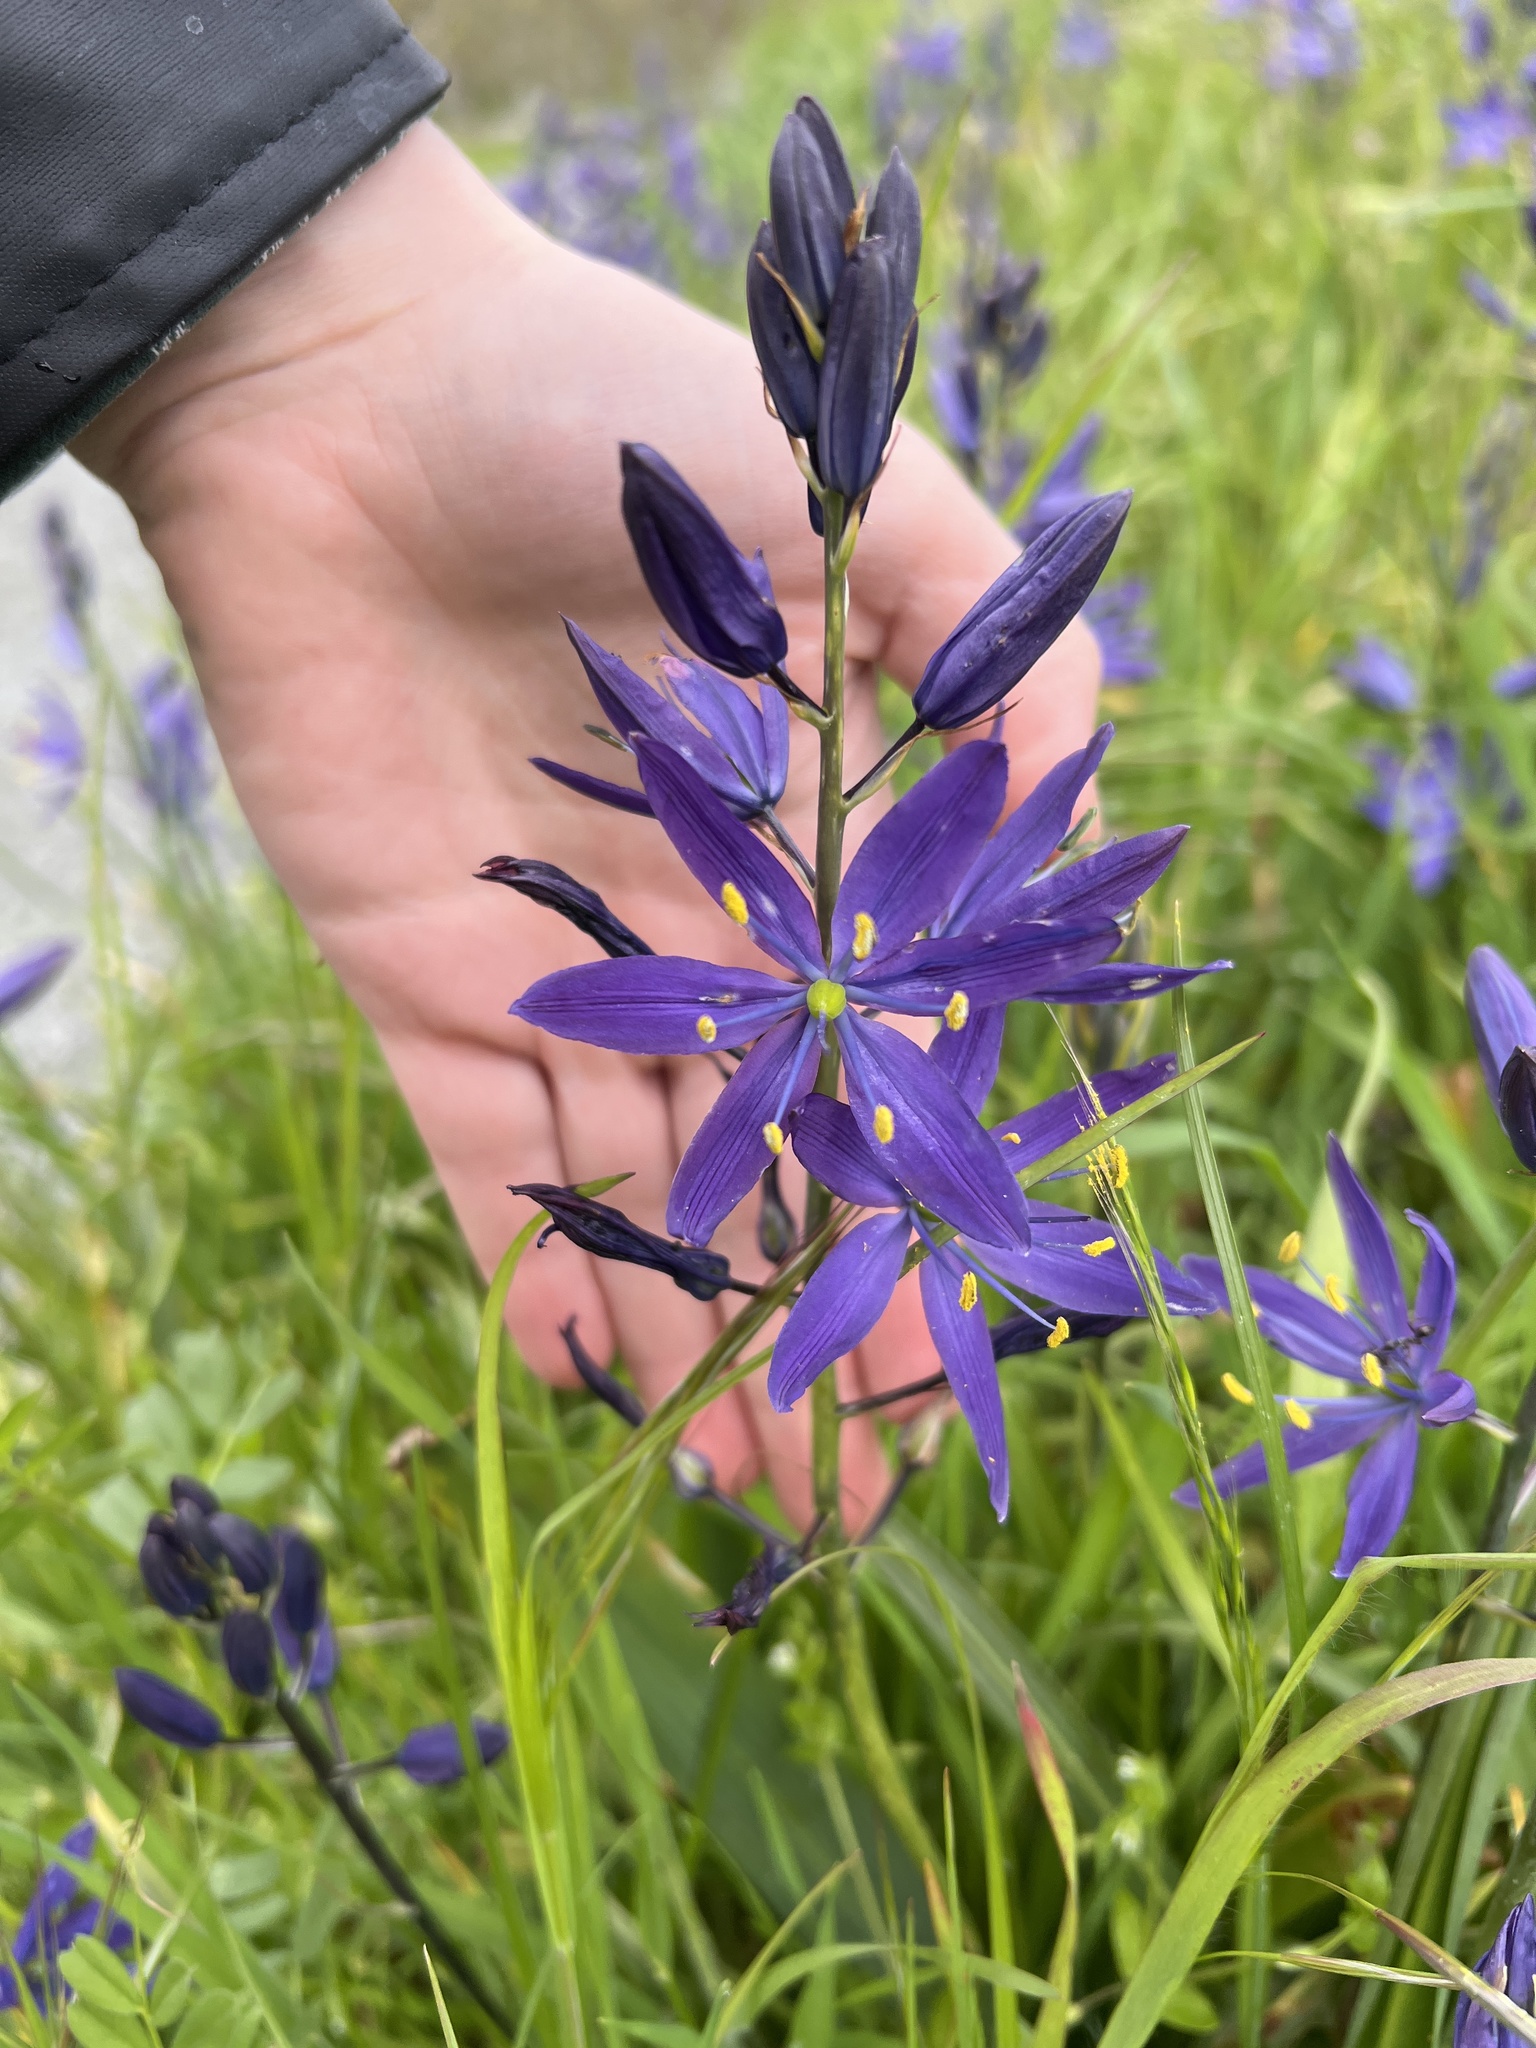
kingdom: Plantae
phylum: Tracheophyta
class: Liliopsida
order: Asparagales
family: Asparagaceae
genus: Camassia
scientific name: Camassia leichtlinii
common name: Leichtlin's camas
